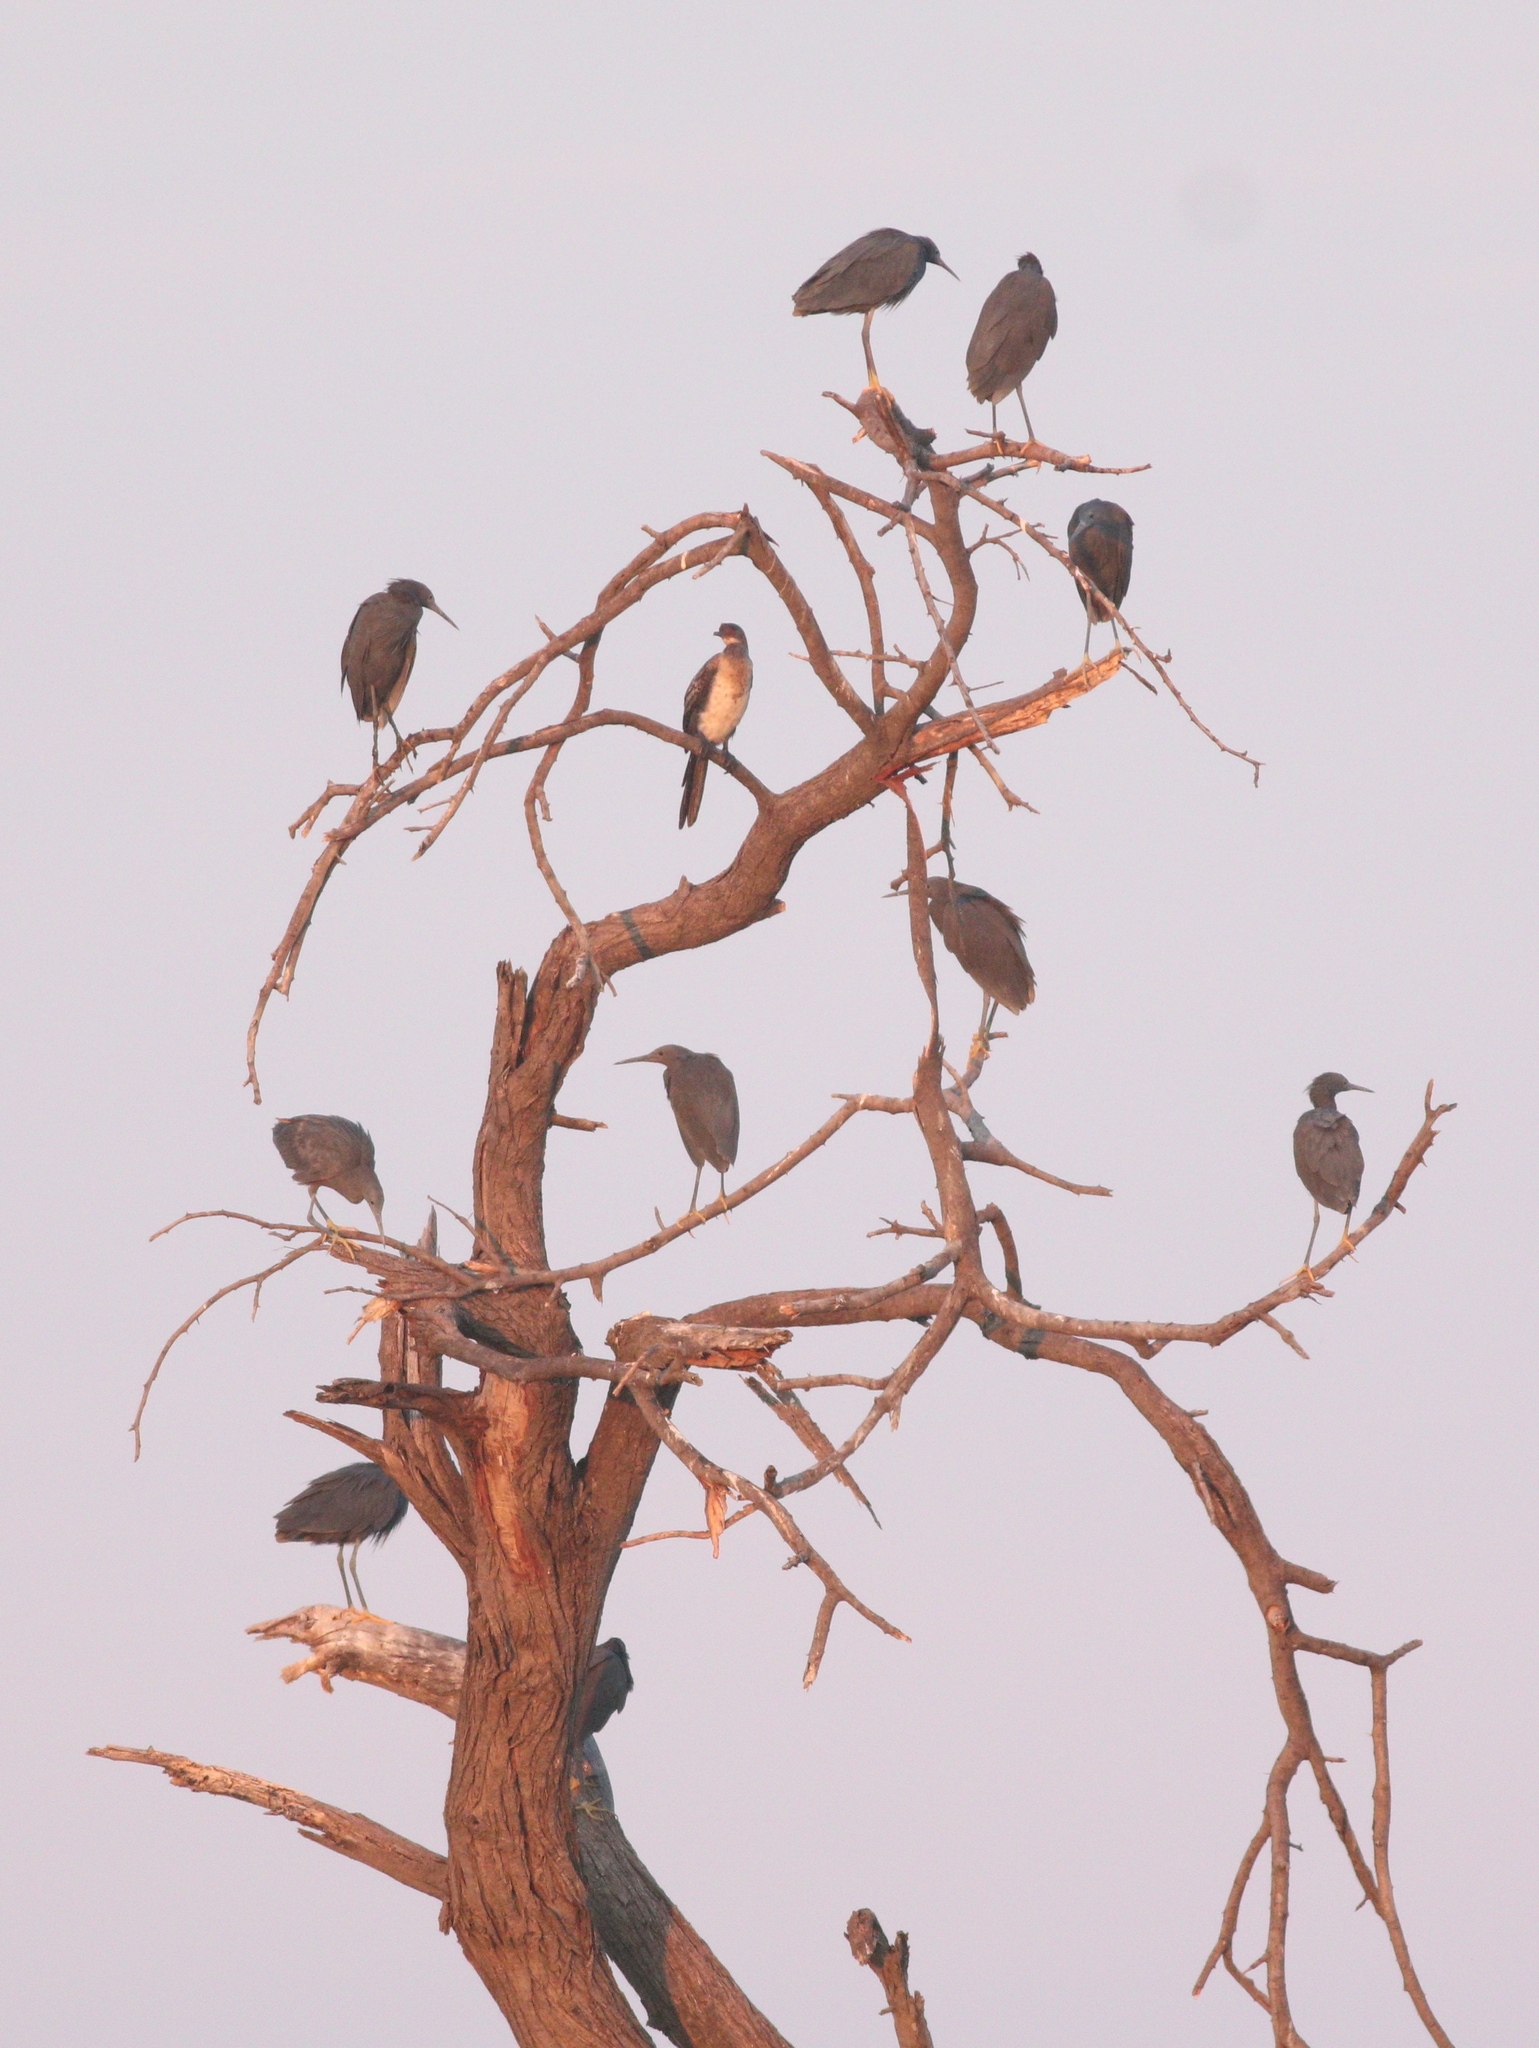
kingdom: Animalia
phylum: Chordata
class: Aves
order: Pelecaniformes
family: Ardeidae
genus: Egretta
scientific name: Egretta ardesiaca
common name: Black heron
